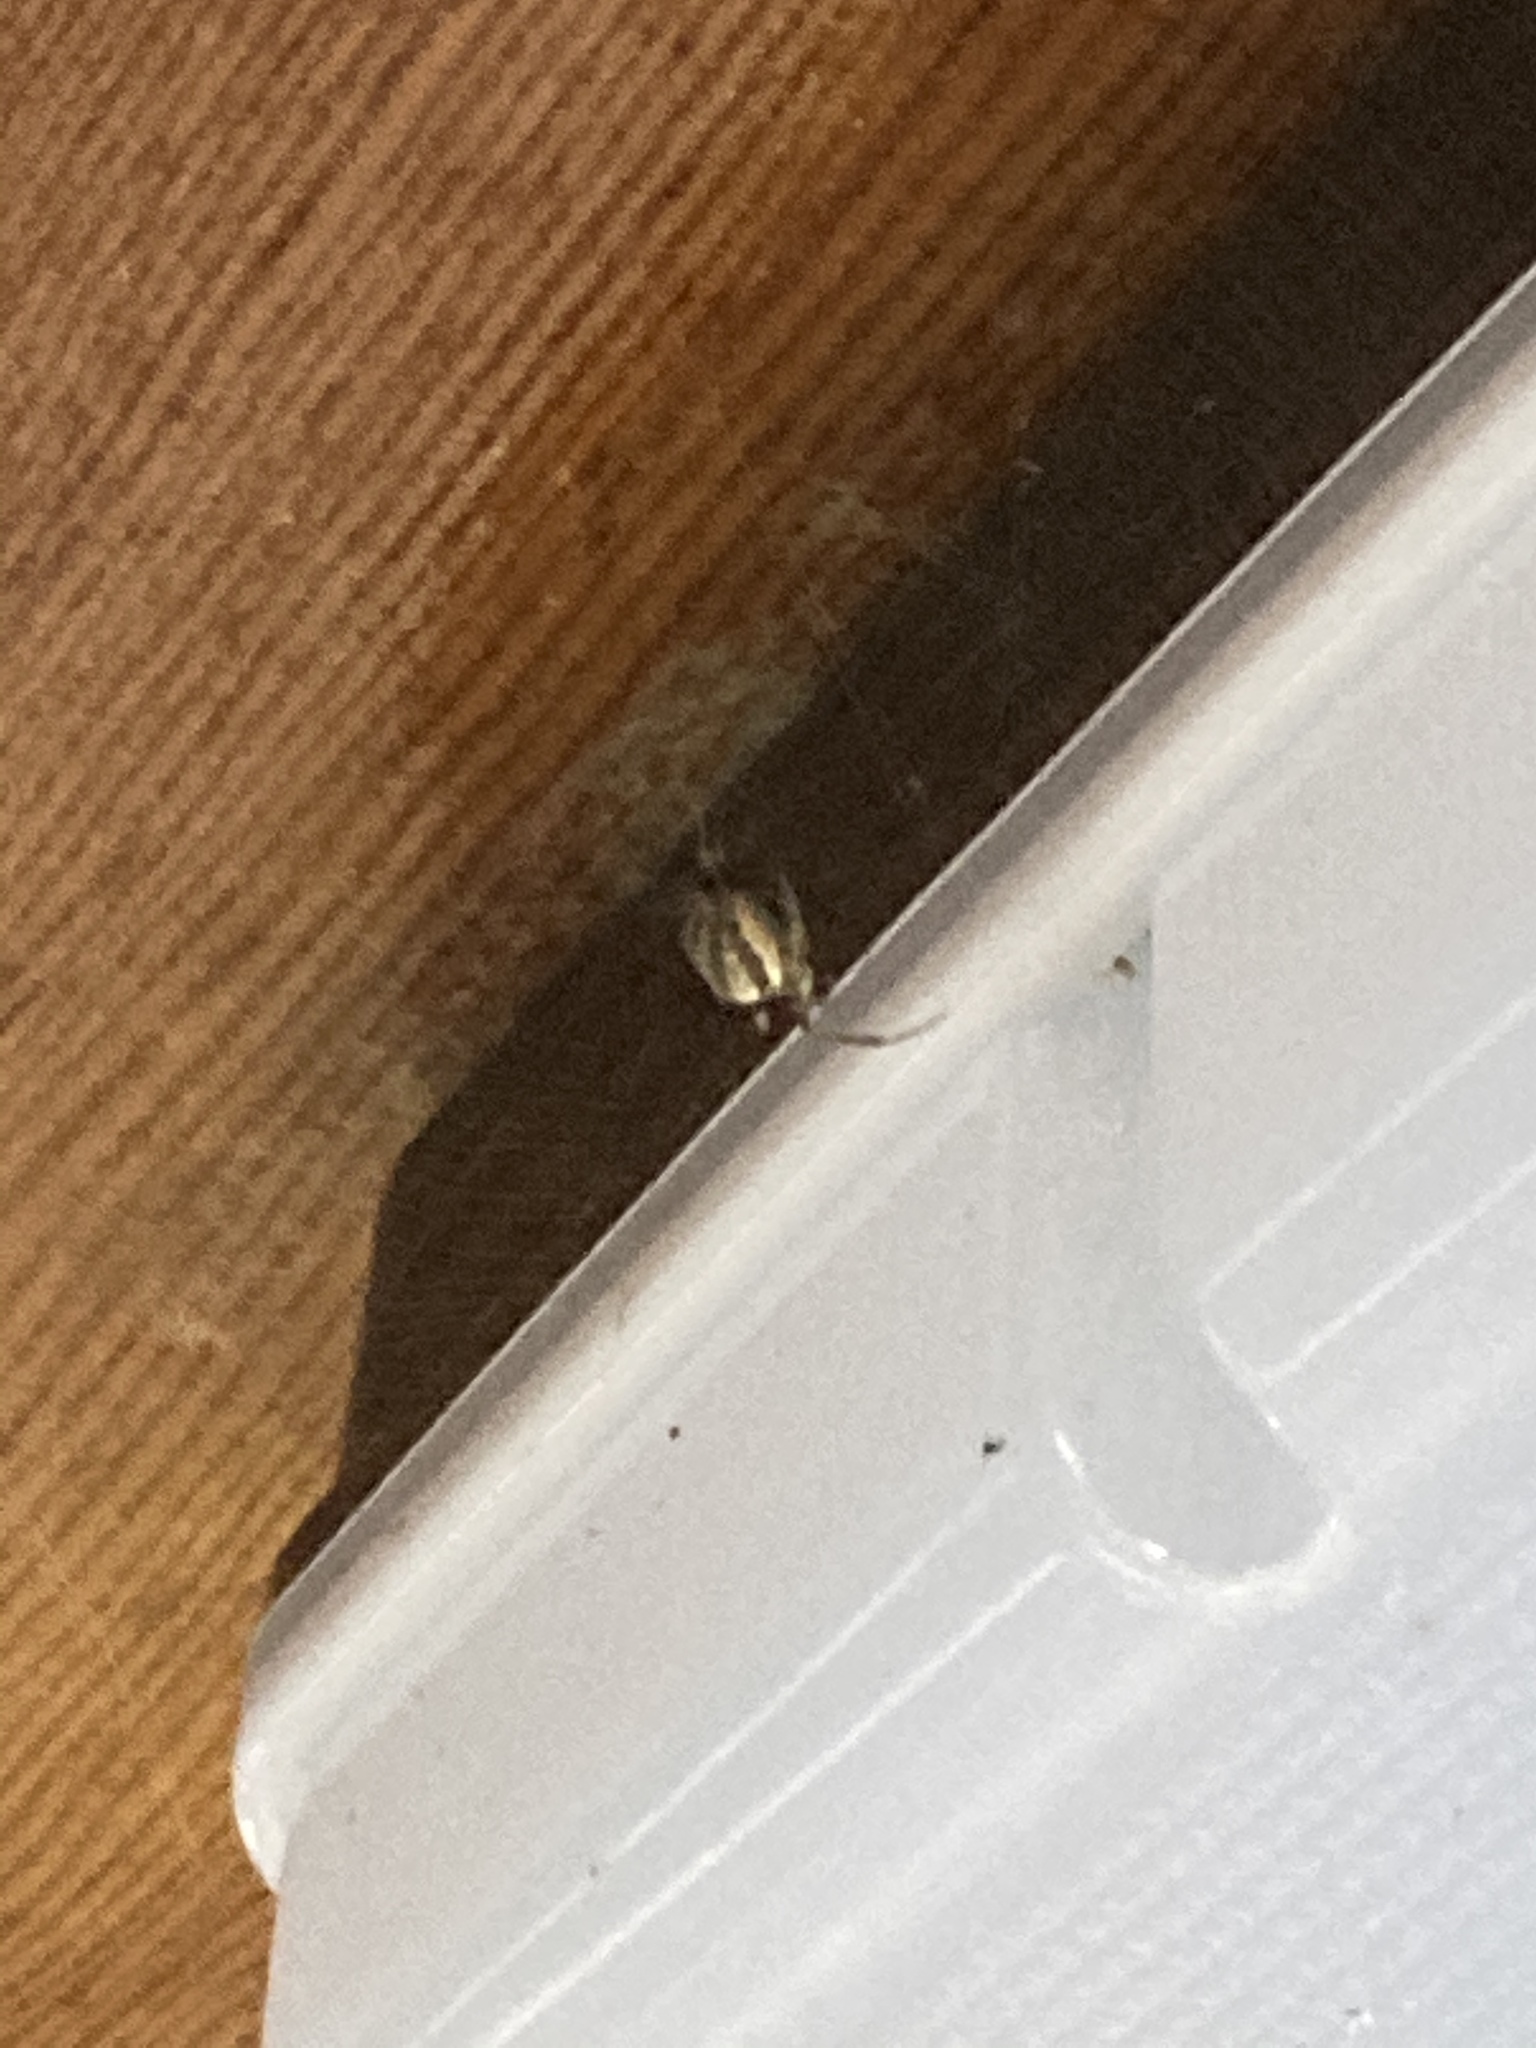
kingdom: Animalia
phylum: Arthropoda
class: Arachnida
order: Araneae
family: Araneidae
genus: Larinioides
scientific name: Larinioides cornutus
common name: Furrow orbweaver
